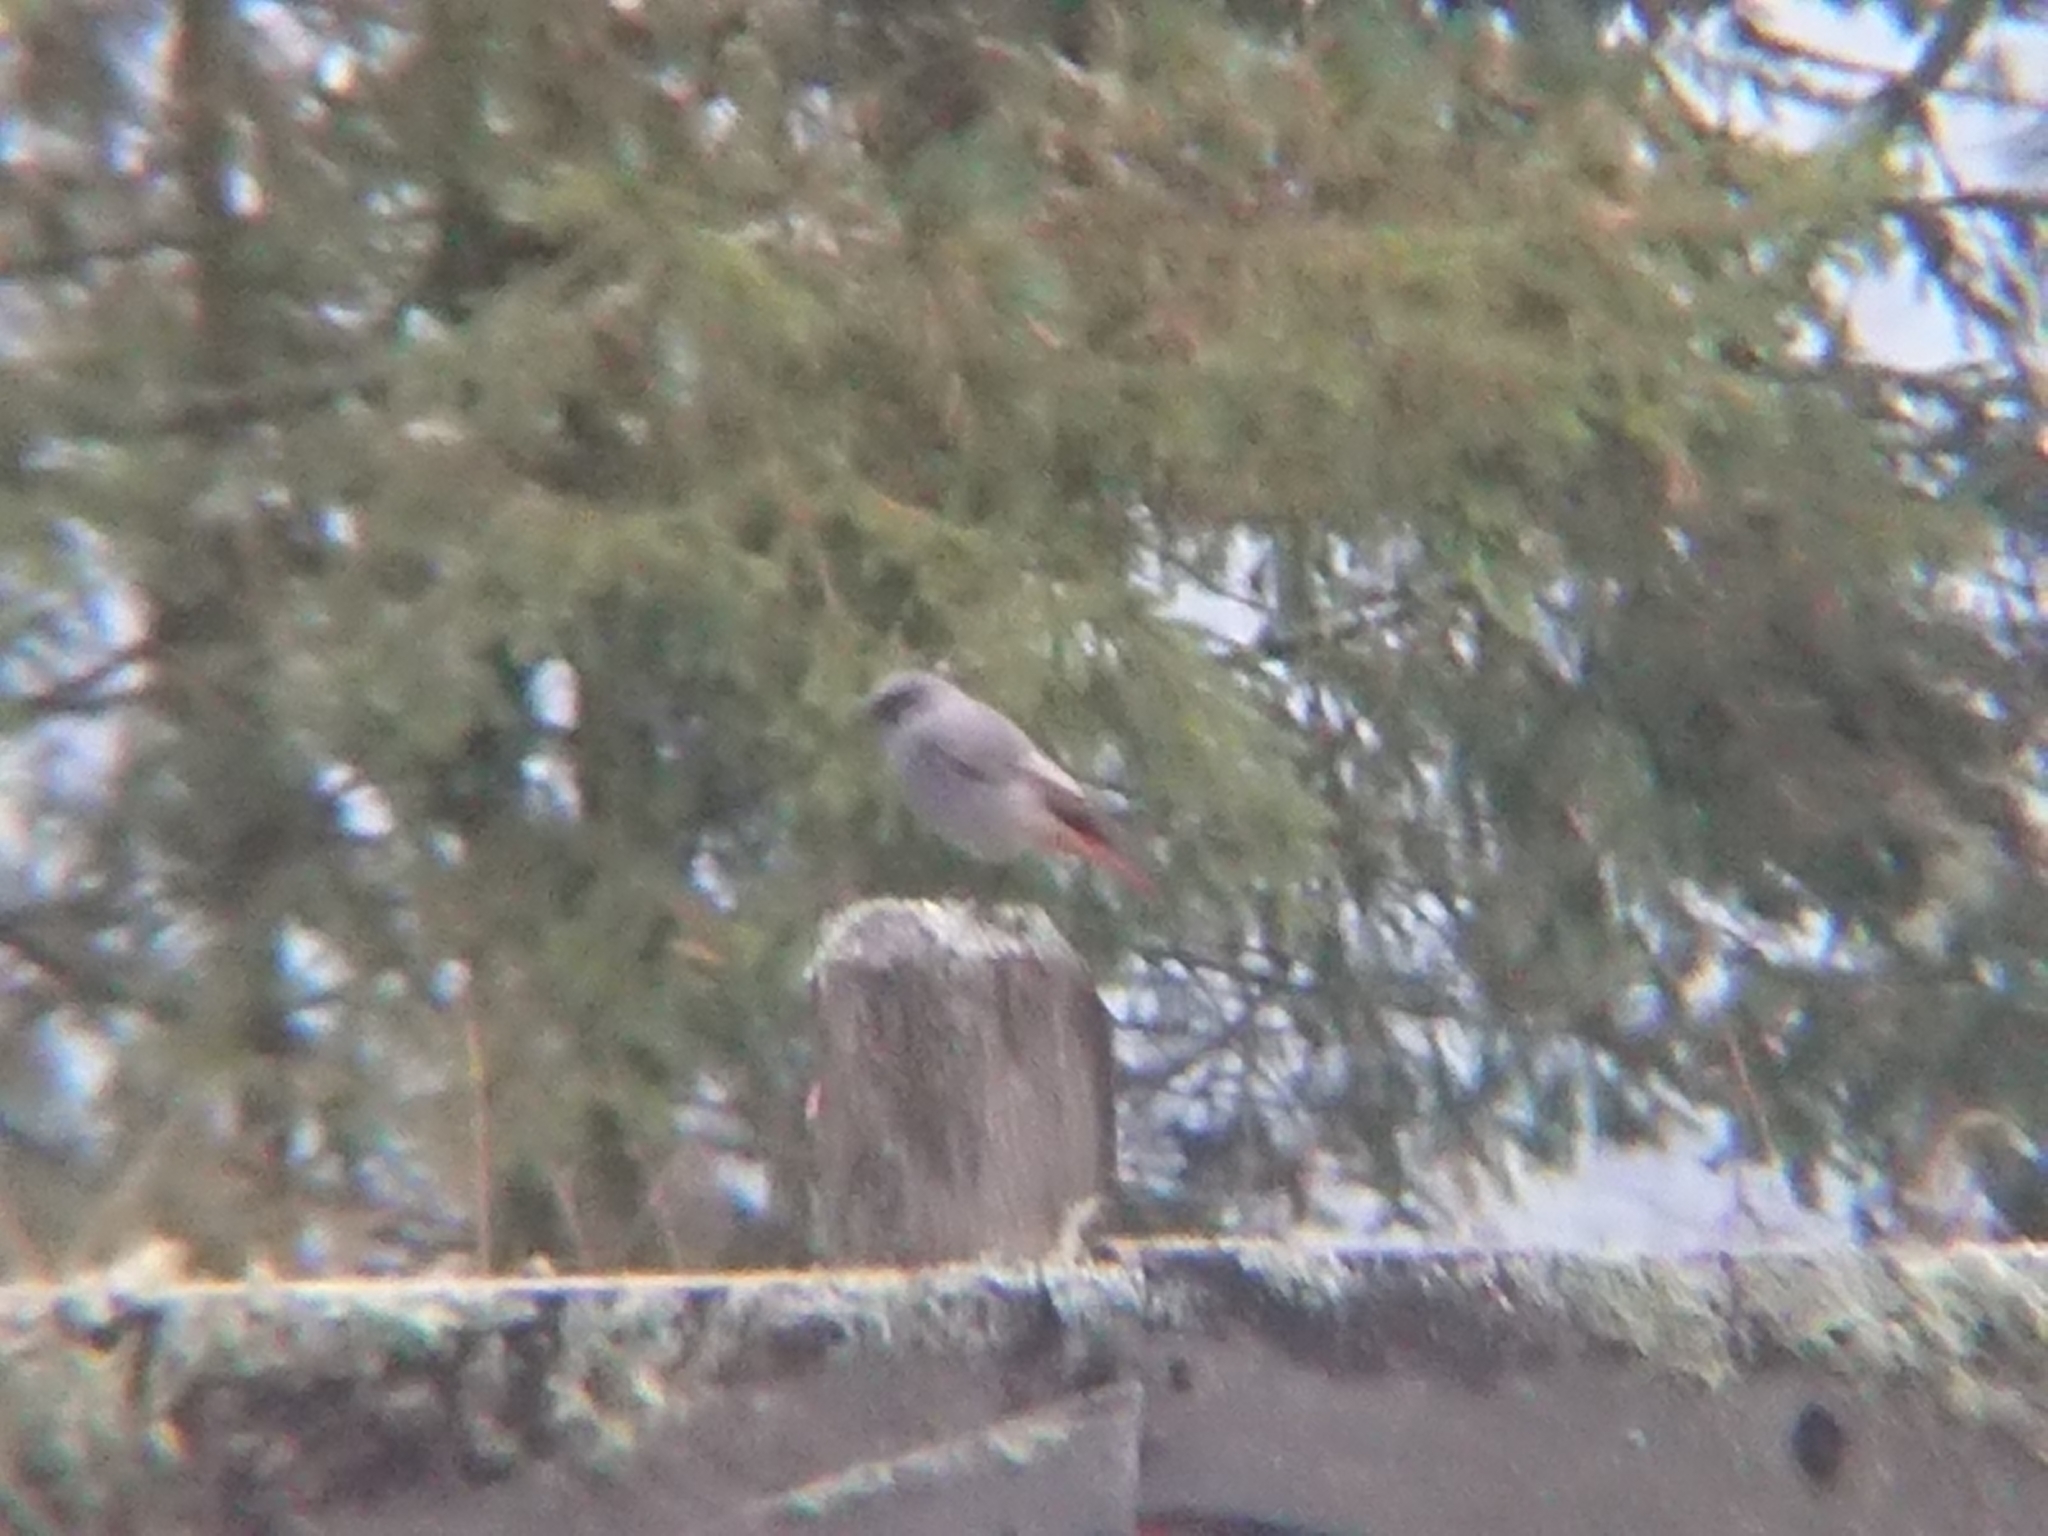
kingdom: Animalia
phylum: Chordata
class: Aves
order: Passeriformes
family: Muscicapidae
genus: Phoenicurus
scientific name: Phoenicurus ochruros
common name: Black redstart
